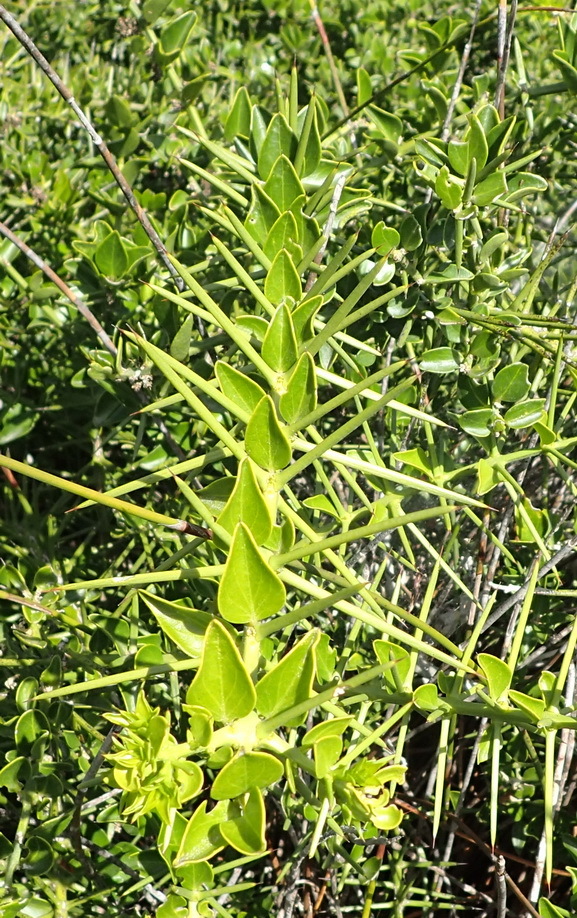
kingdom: Plantae
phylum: Tracheophyta
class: Magnoliopsida
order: Brassicales
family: Salvadoraceae
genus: Azima
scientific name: Azima tetracantha
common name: Needle bush
